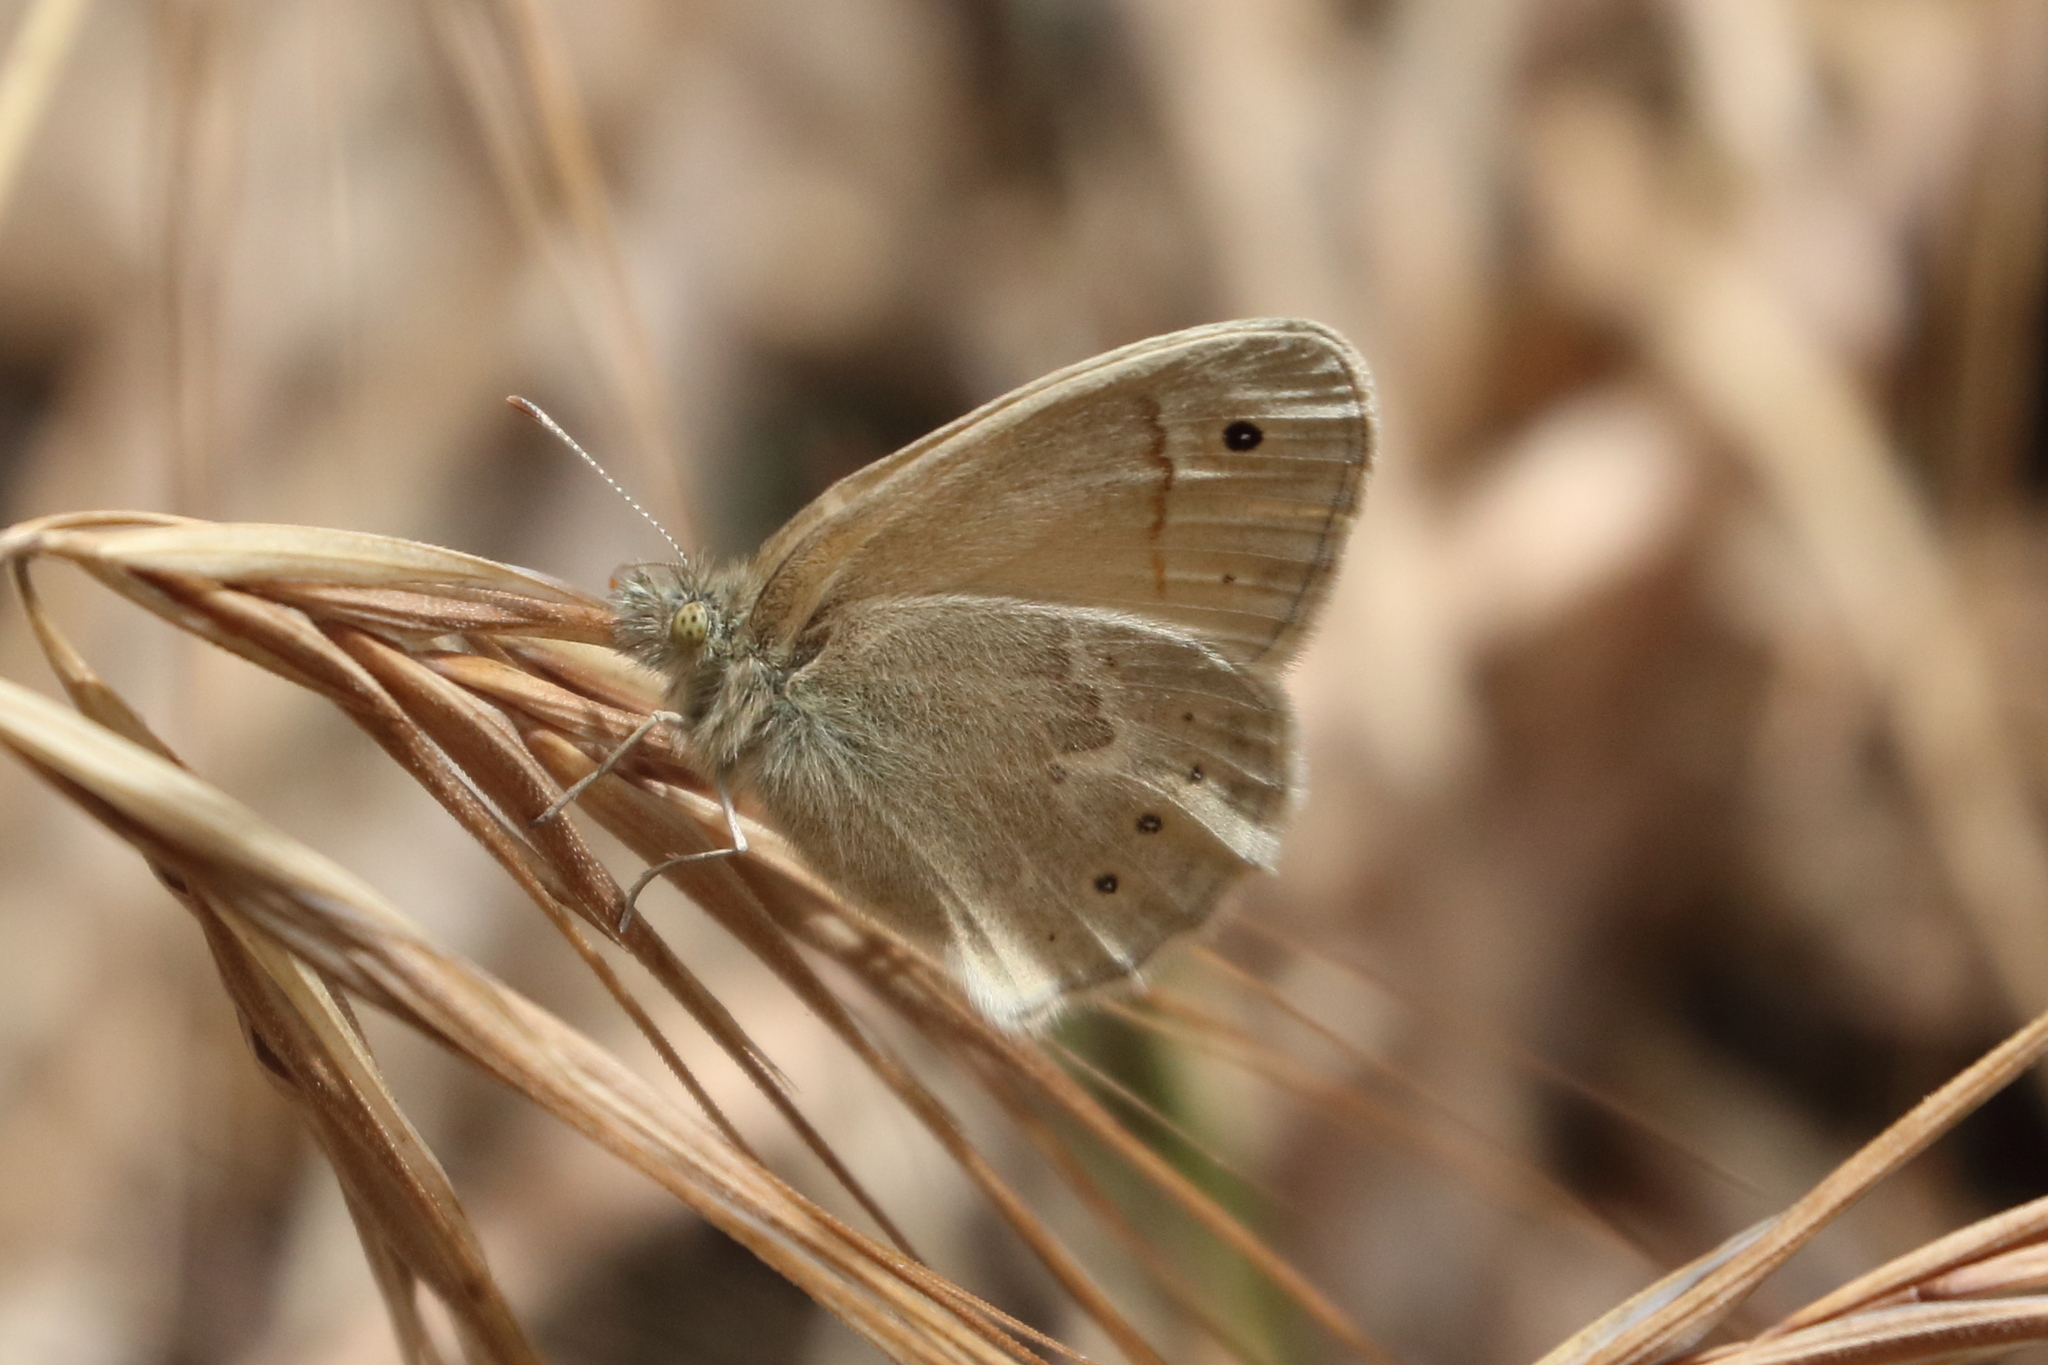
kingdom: Animalia
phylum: Arthropoda
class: Insecta
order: Lepidoptera
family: Nymphalidae
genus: Coenonympha
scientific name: Coenonympha california
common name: Common ringlet
